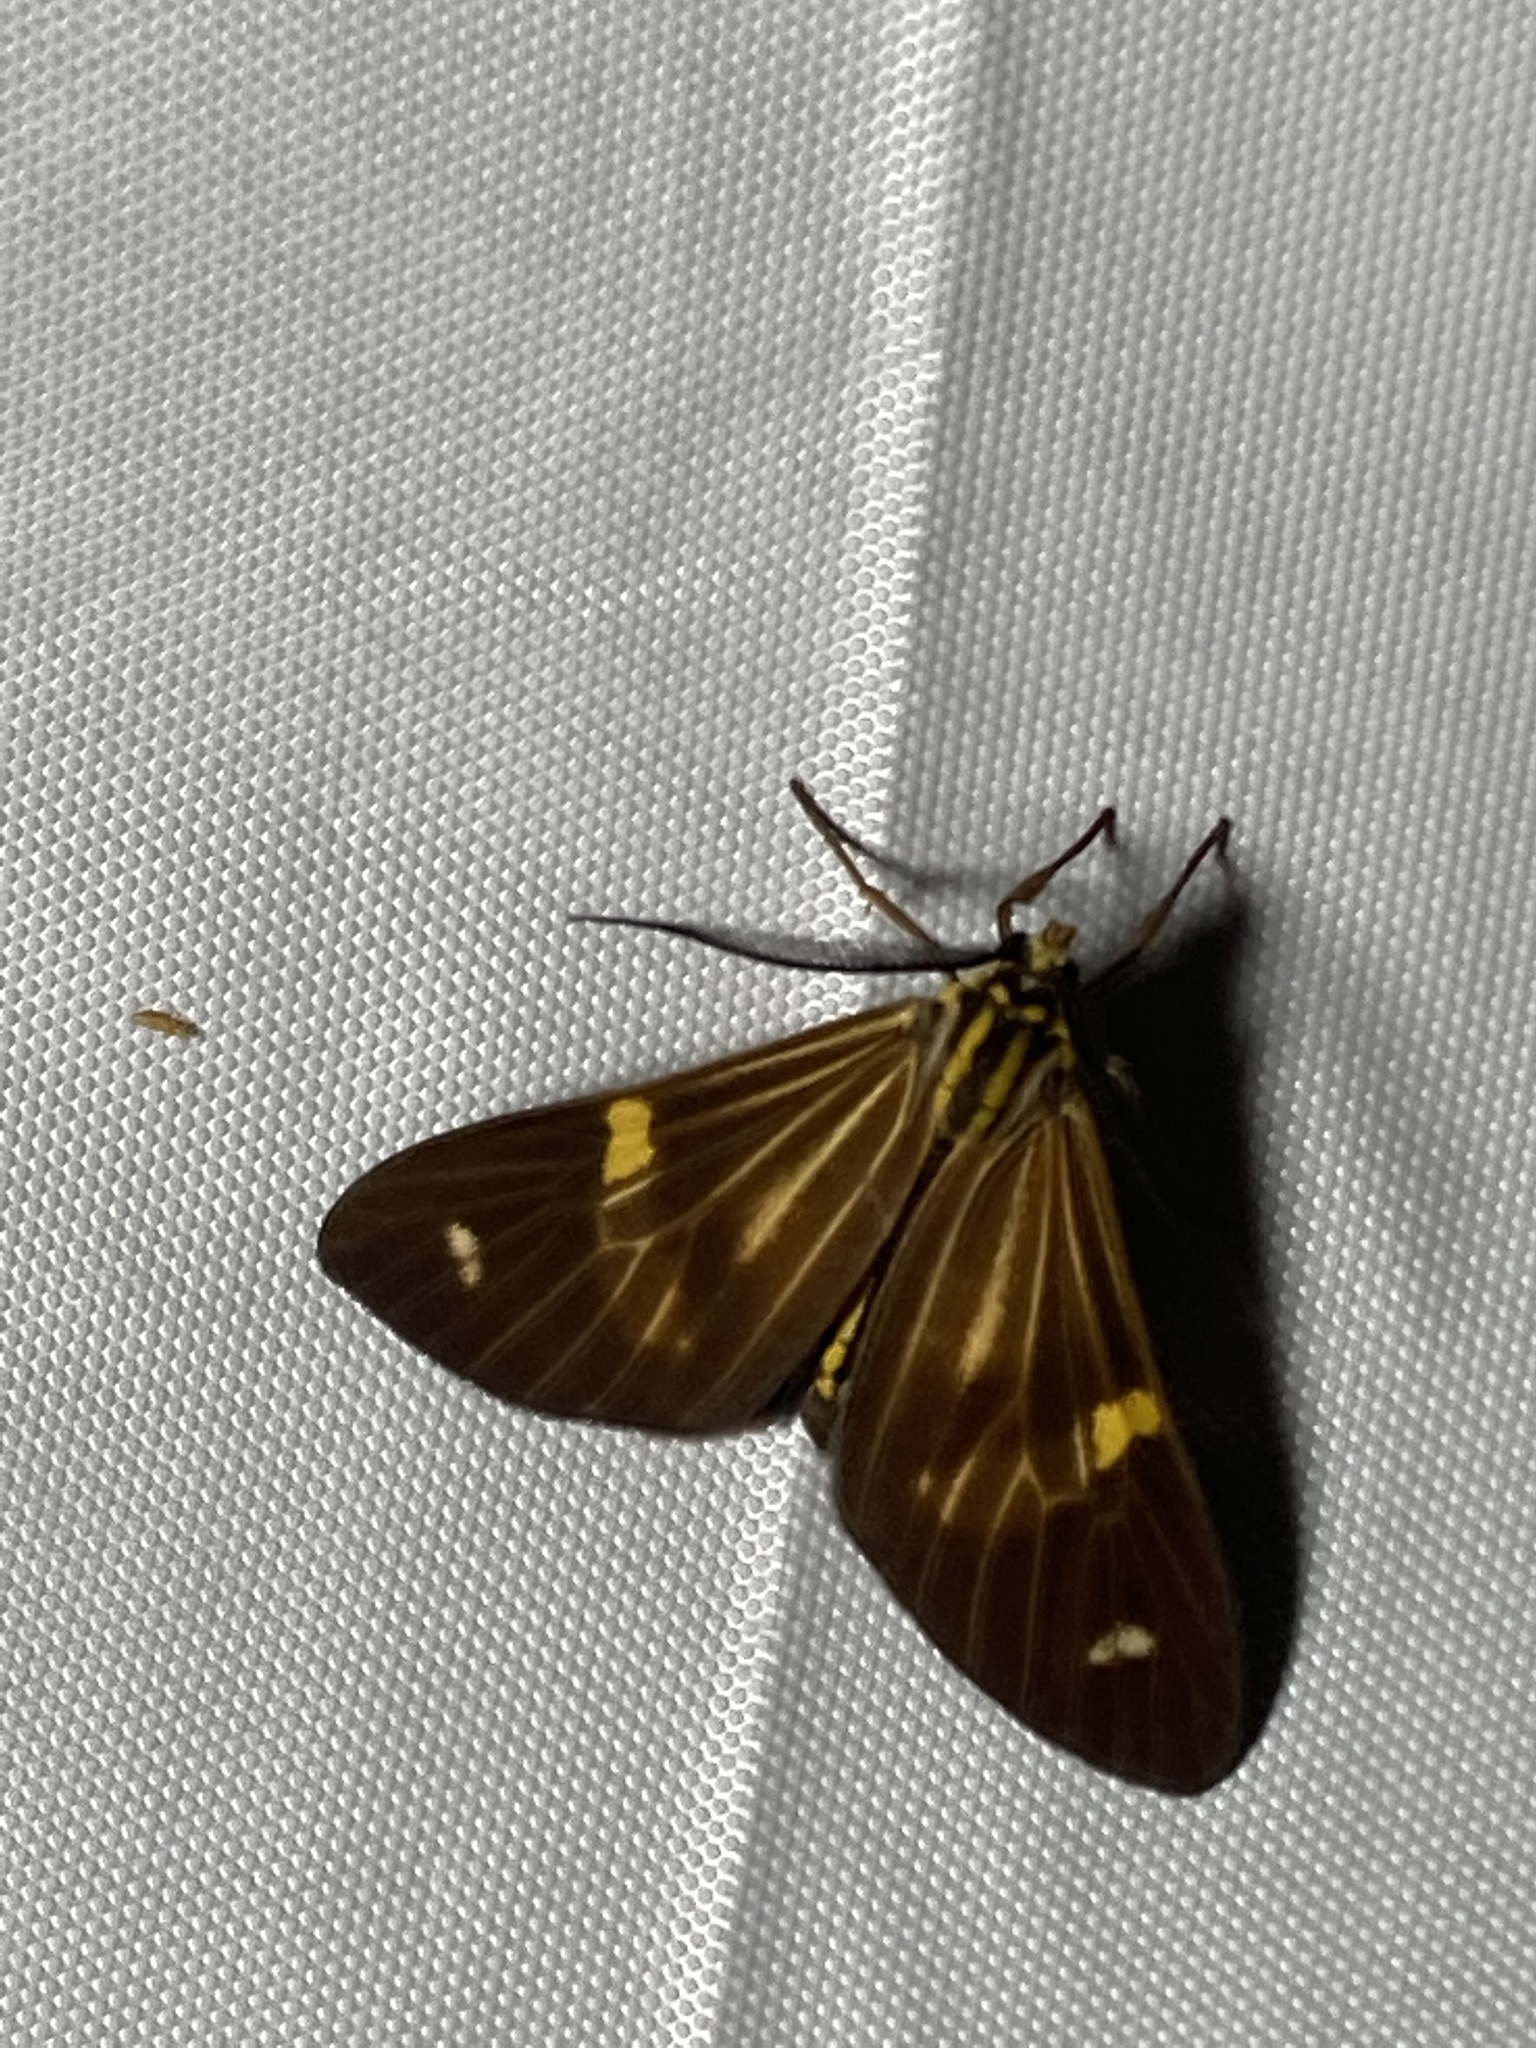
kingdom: Animalia
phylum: Arthropoda
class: Insecta
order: Lepidoptera
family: Notodontidae
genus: Phaeochlaena
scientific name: Phaeochlaena gyon
